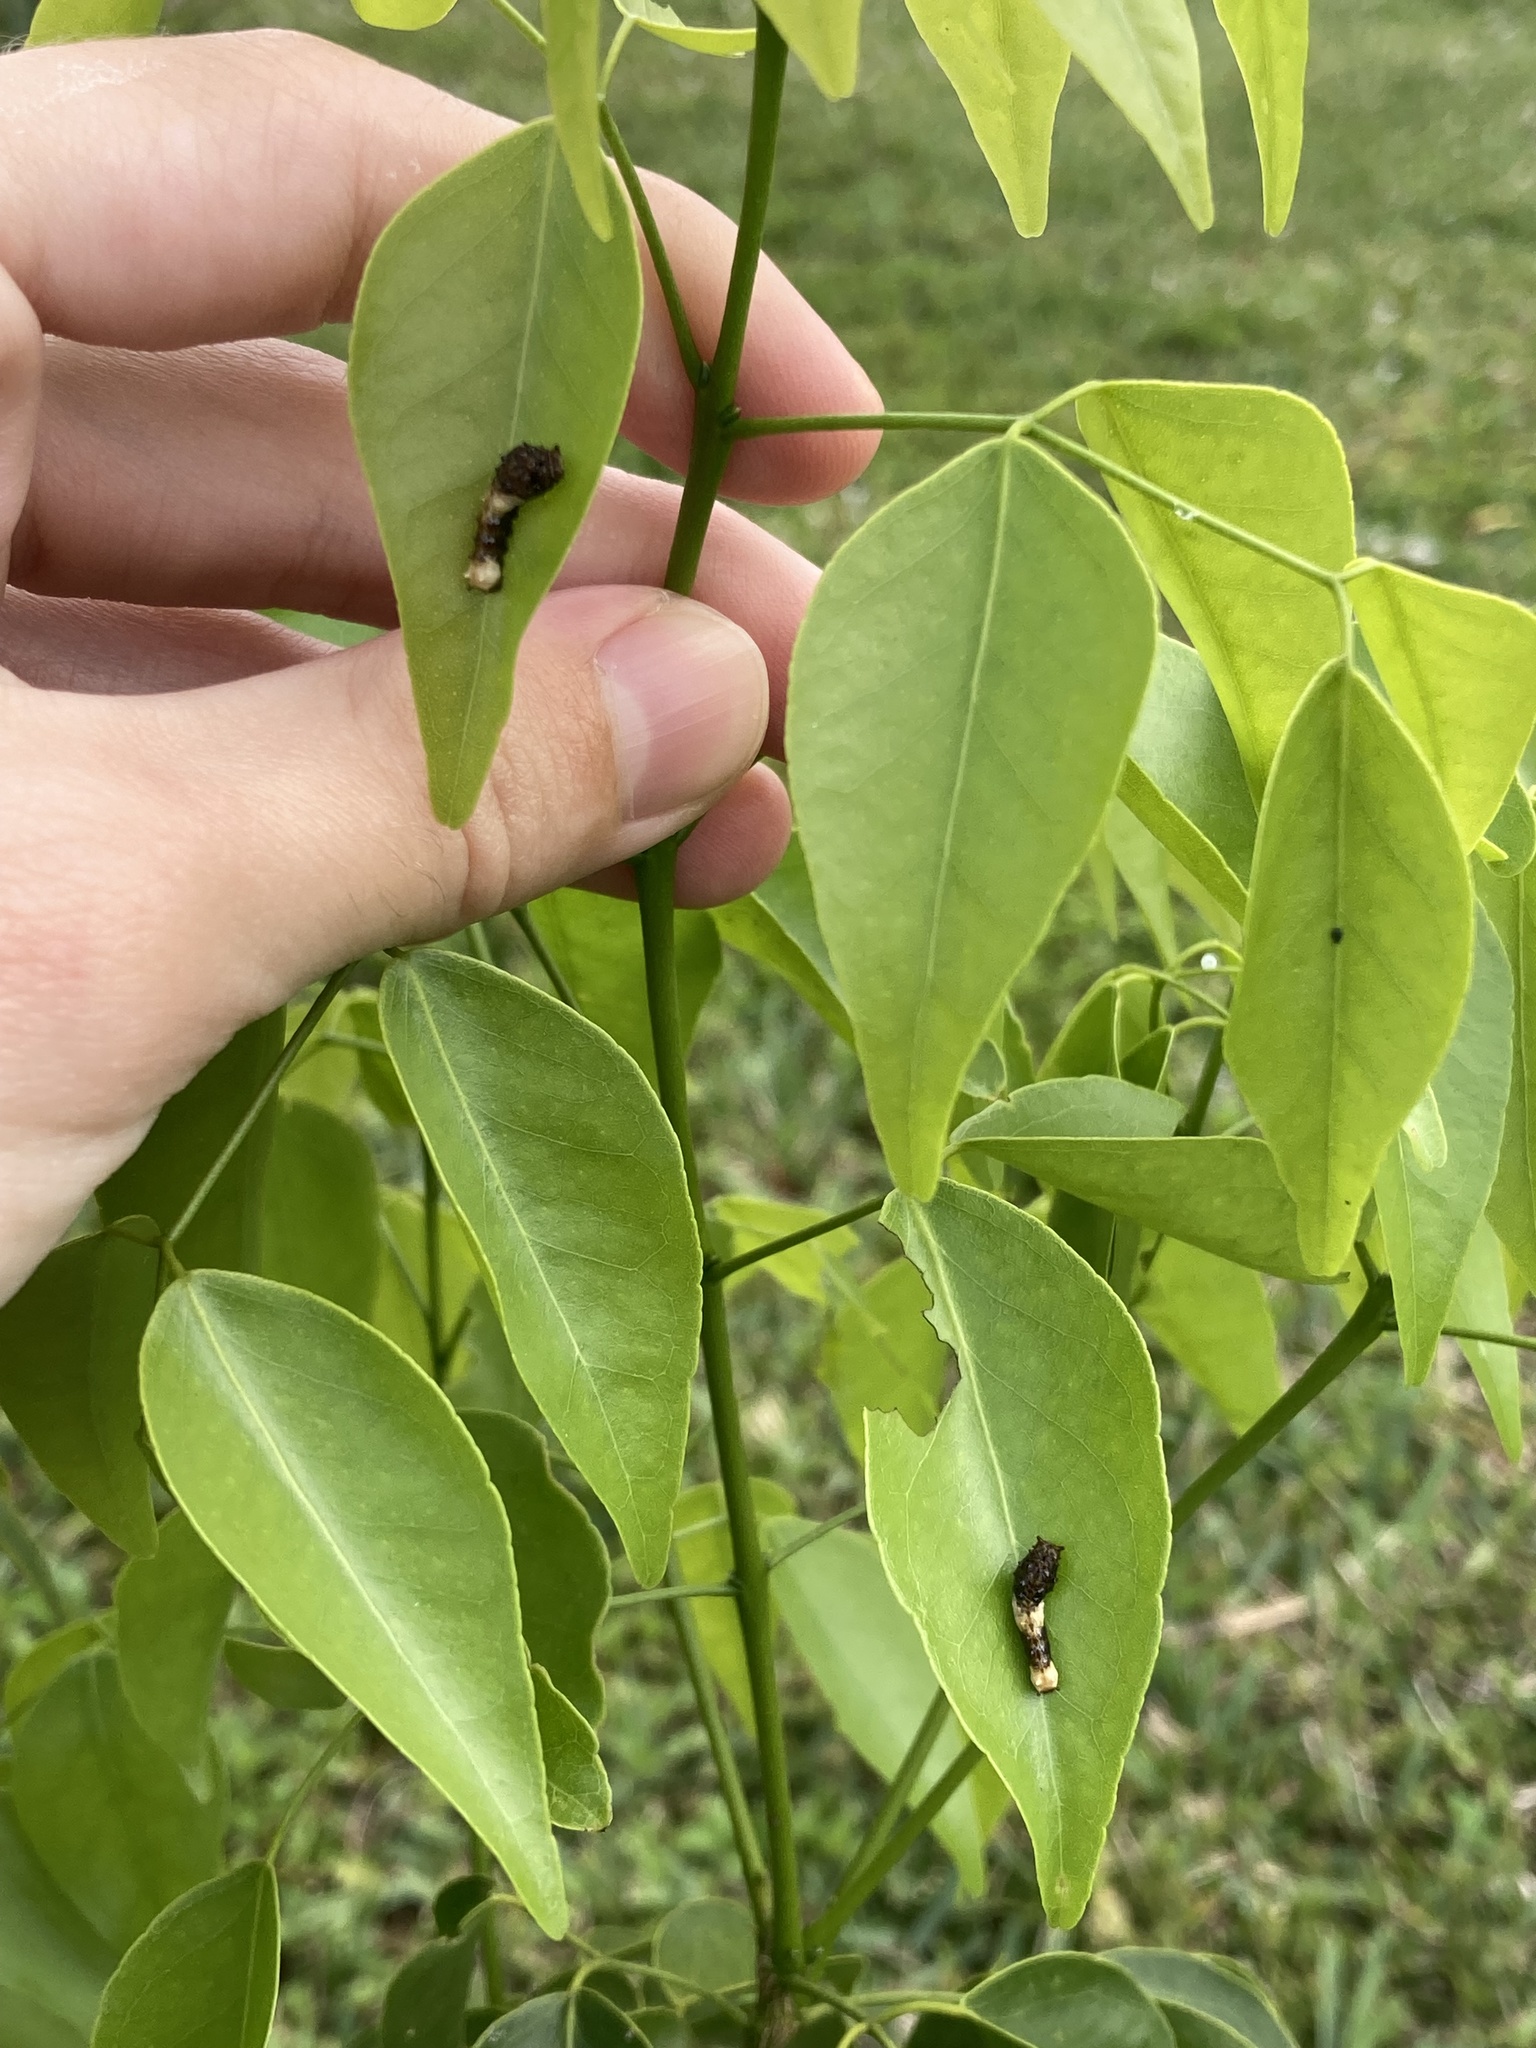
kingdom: Animalia
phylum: Arthropoda
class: Insecta
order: Lepidoptera
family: Papilionidae
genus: Papilio
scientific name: Papilio cresphontes
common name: Giant swallowtail
